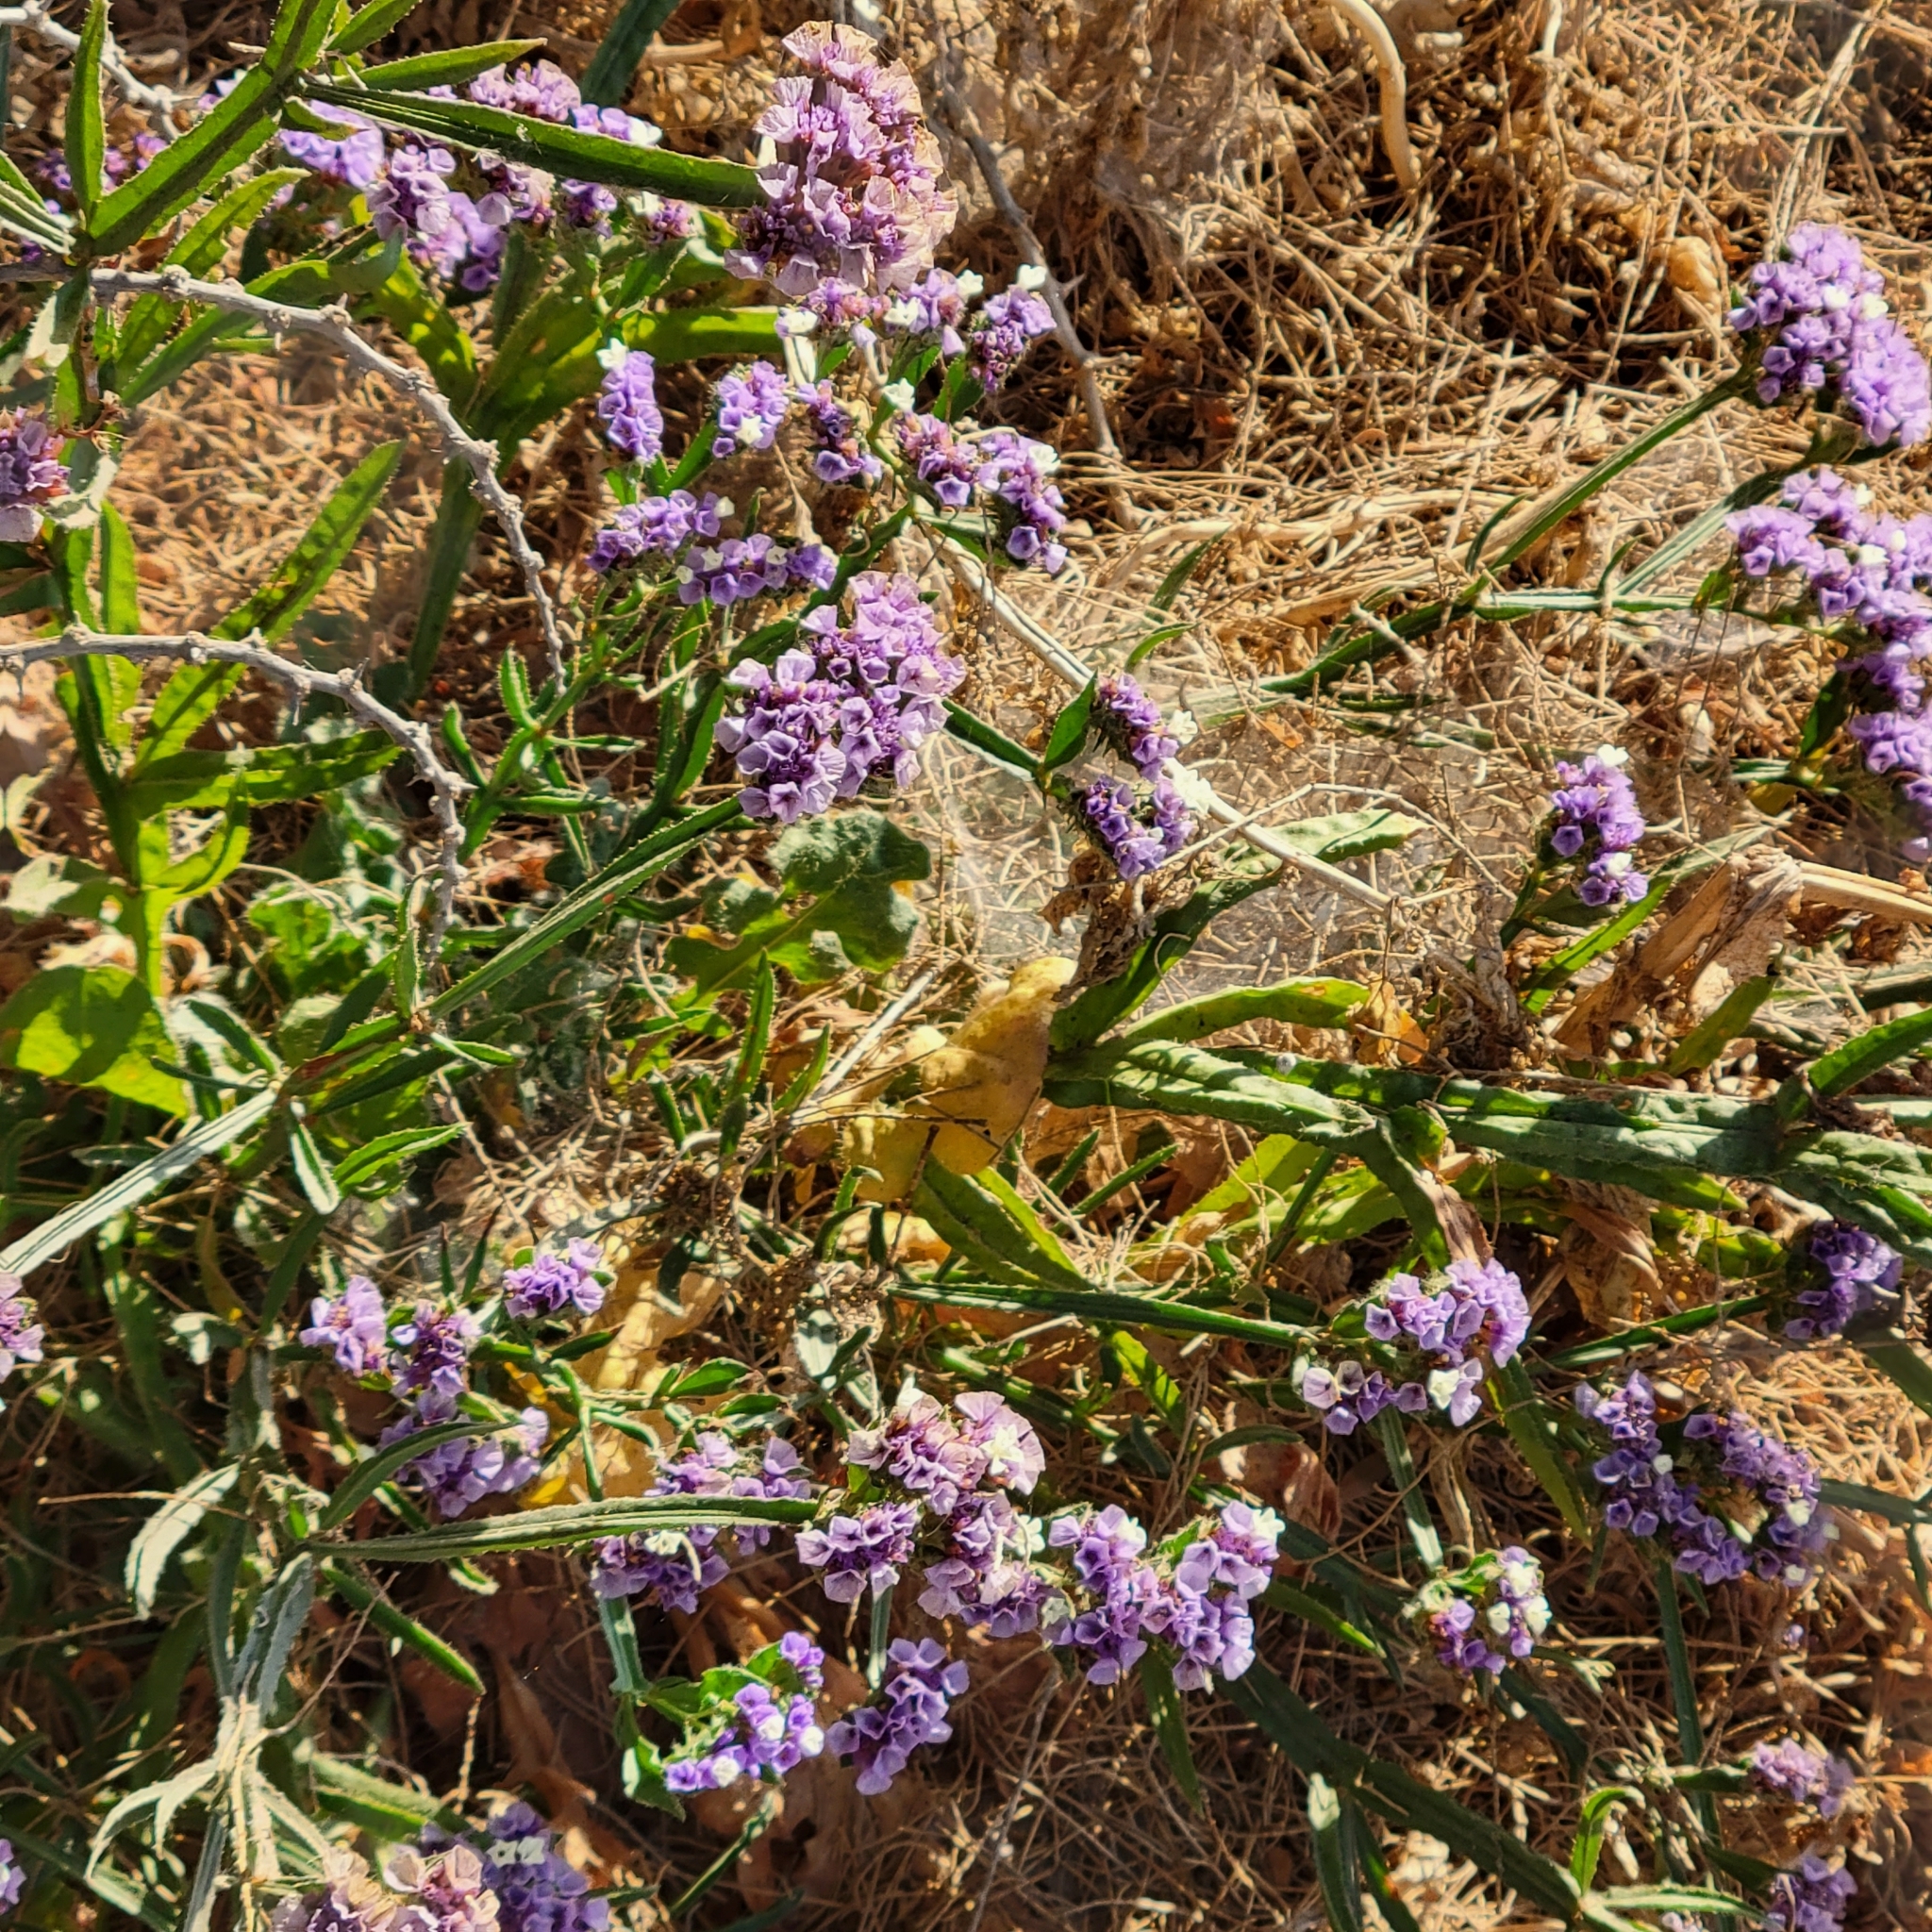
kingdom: Plantae
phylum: Tracheophyta
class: Magnoliopsida
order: Caryophyllales
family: Plumbaginaceae
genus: Limonium
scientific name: Limonium sinuatum
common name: Statice
